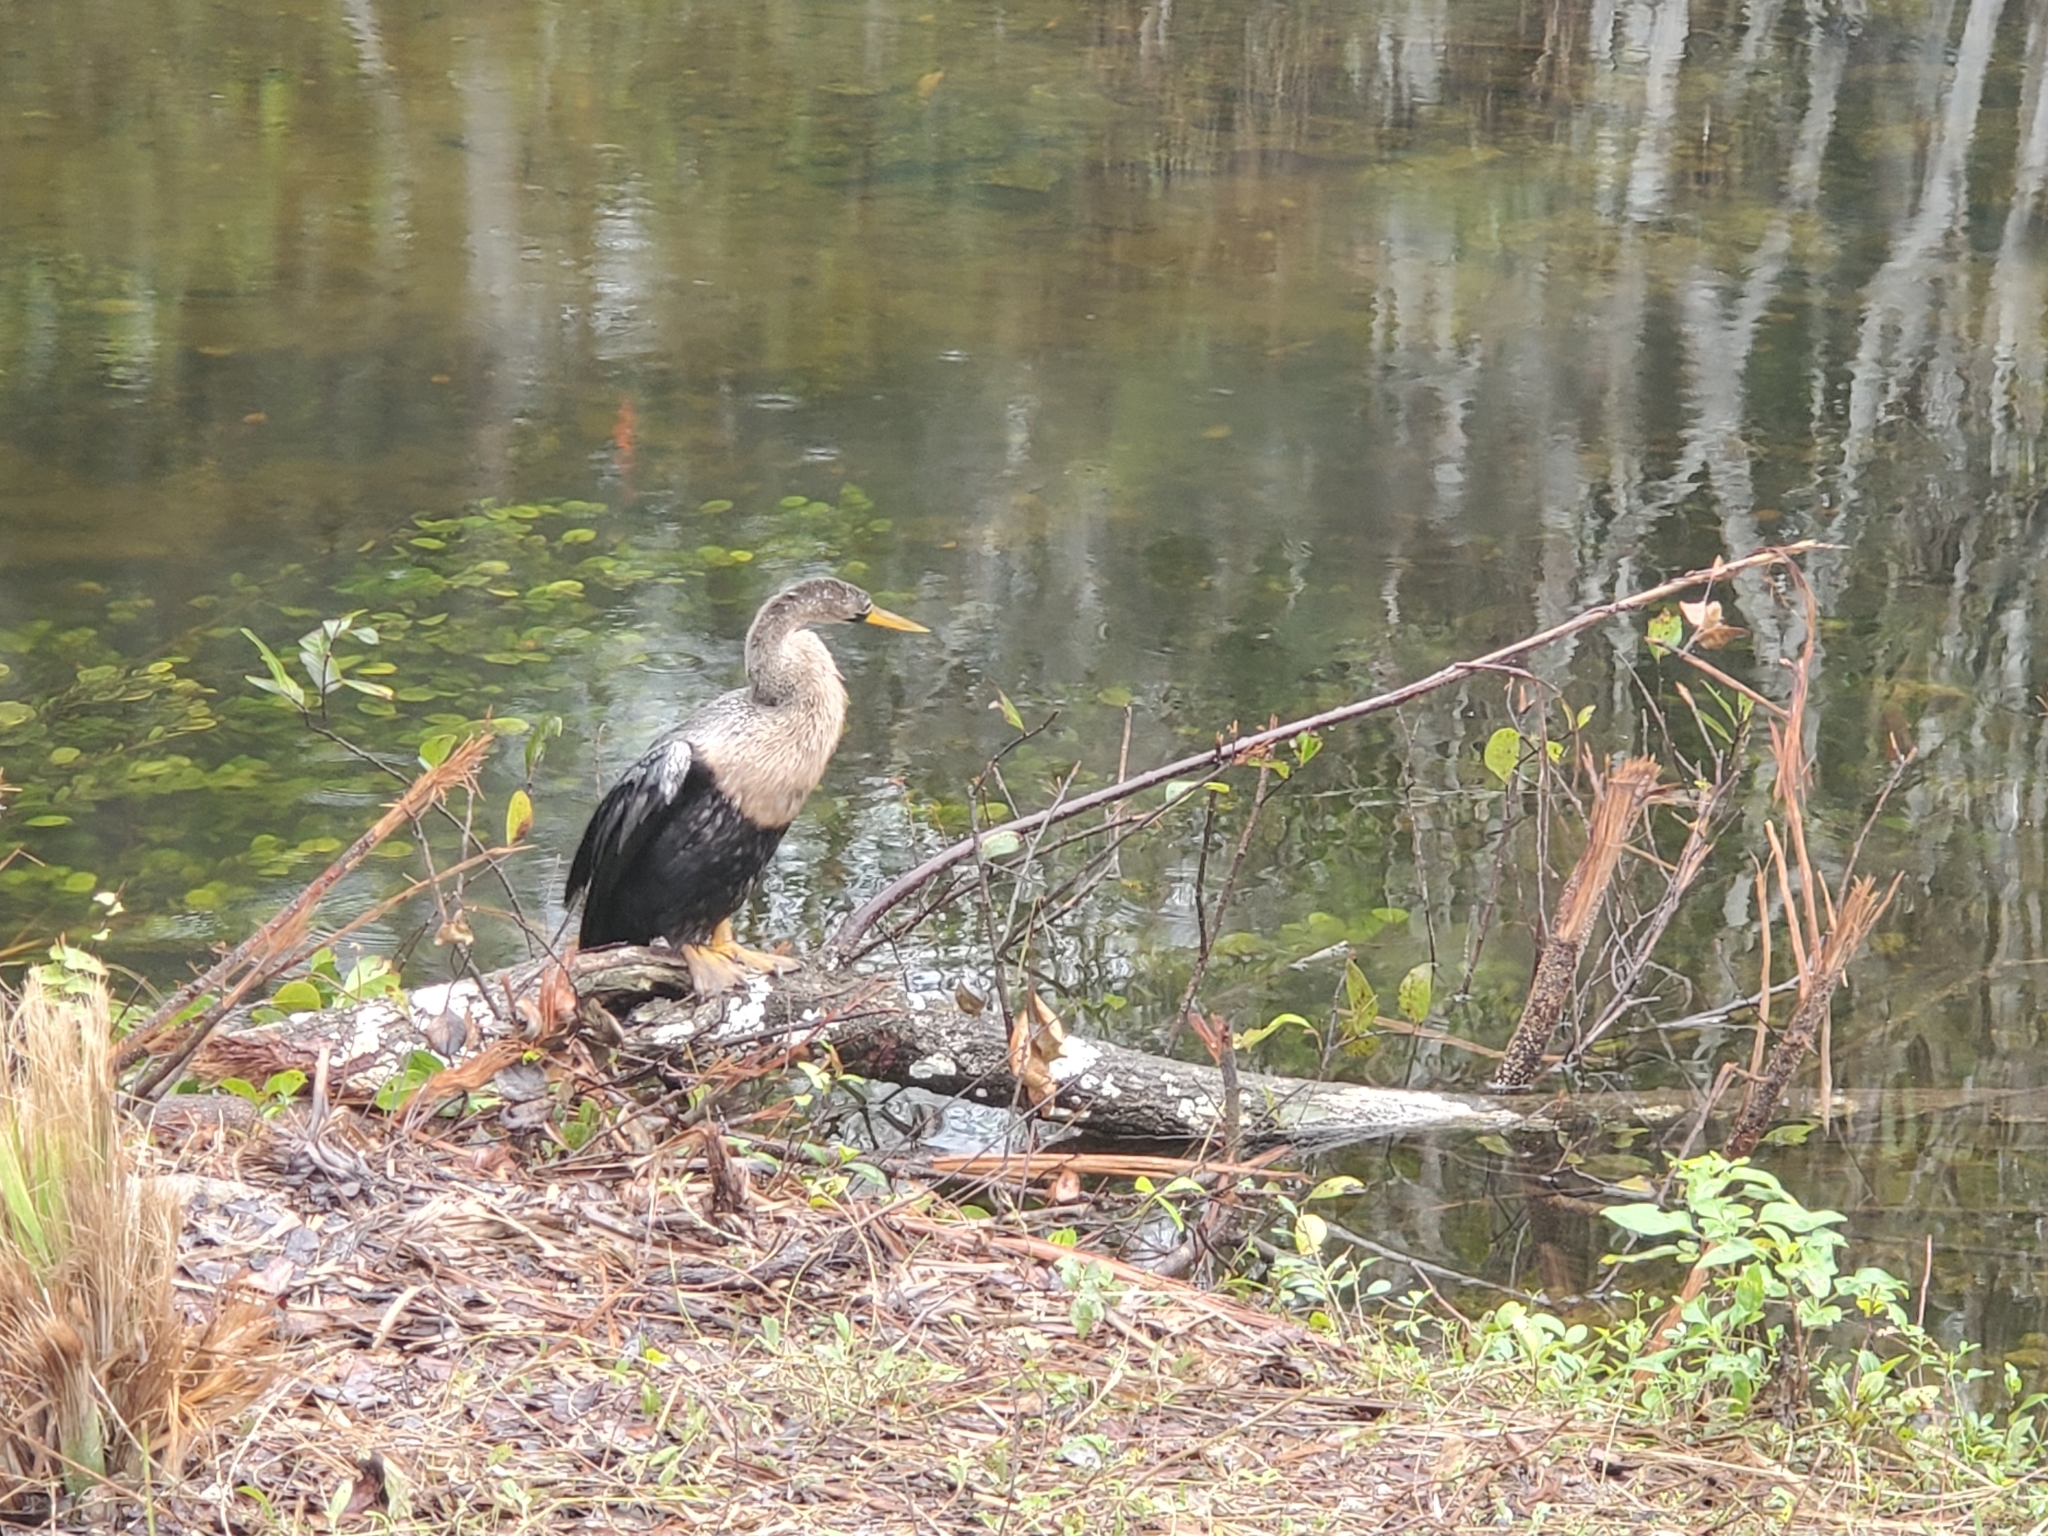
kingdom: Animalia
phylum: Chordata
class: Aves
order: Suliformes
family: Anhingidae
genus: Anhinga
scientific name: Anhinga anhinga
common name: Anhinga
